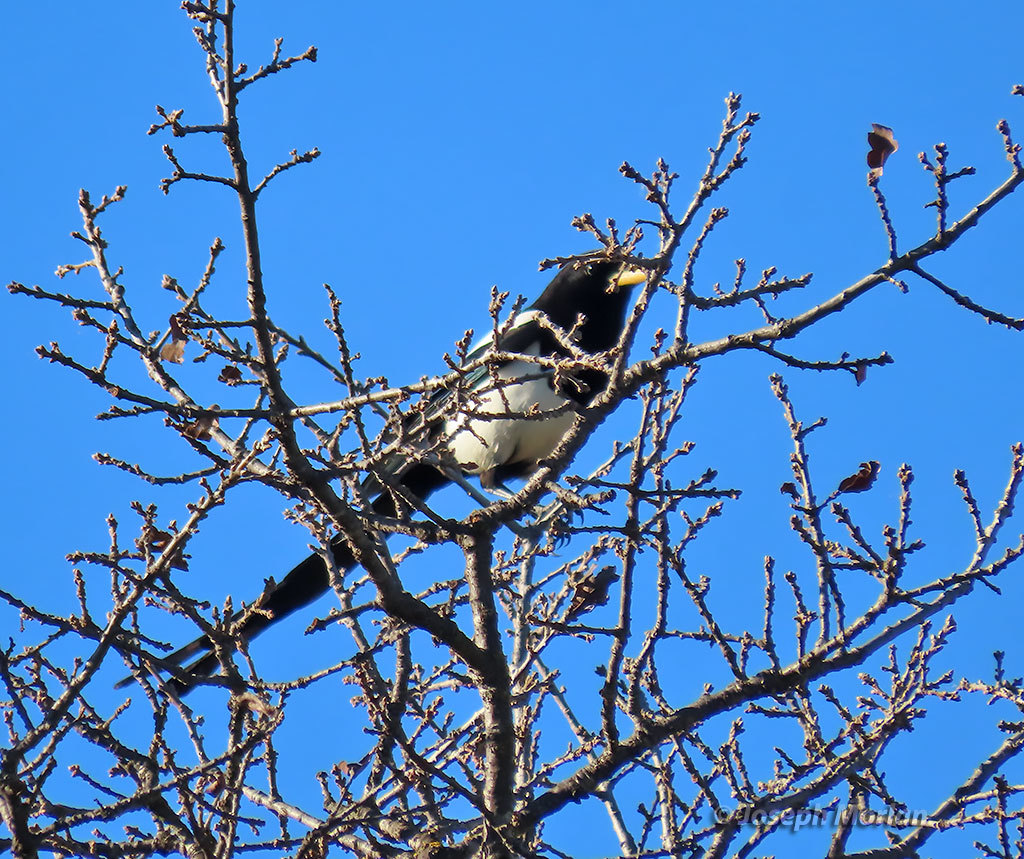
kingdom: Animalia
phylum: Chordata
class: Aves
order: Passeriformes
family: Corvidae
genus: Pica
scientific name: Pica nuttalli
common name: Yellow-billed magpie
